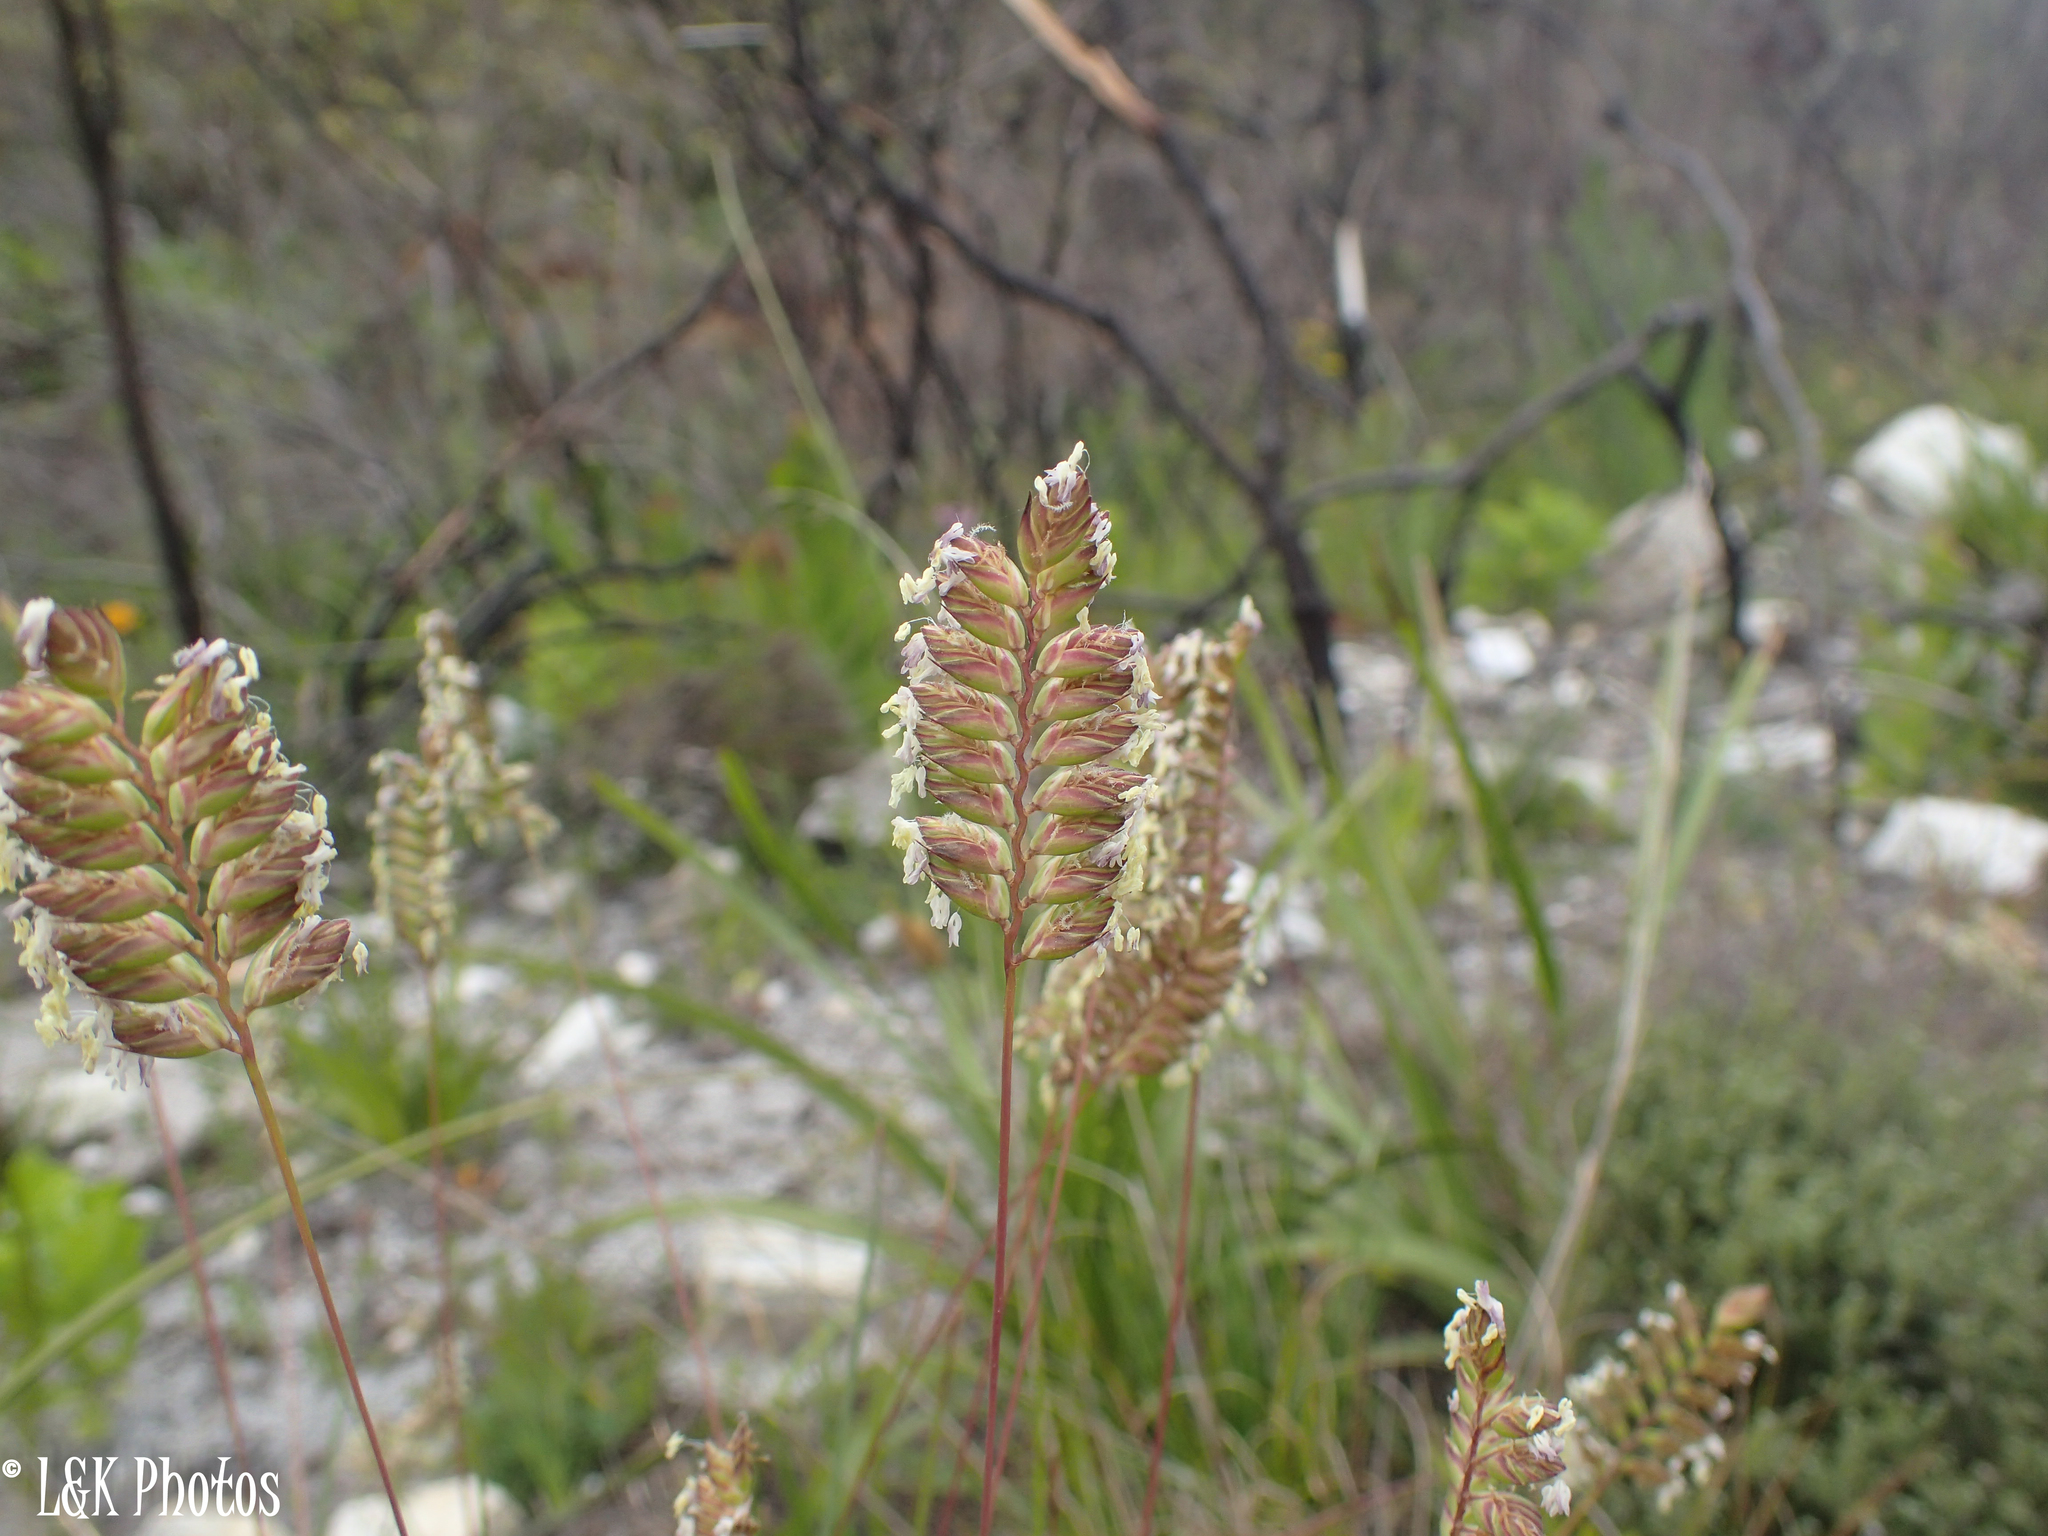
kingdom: Plantae
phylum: Tracheophyta
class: Liliopsida
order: Poales
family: Poaceae
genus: Tribolium
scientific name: Tribolium uniolae
